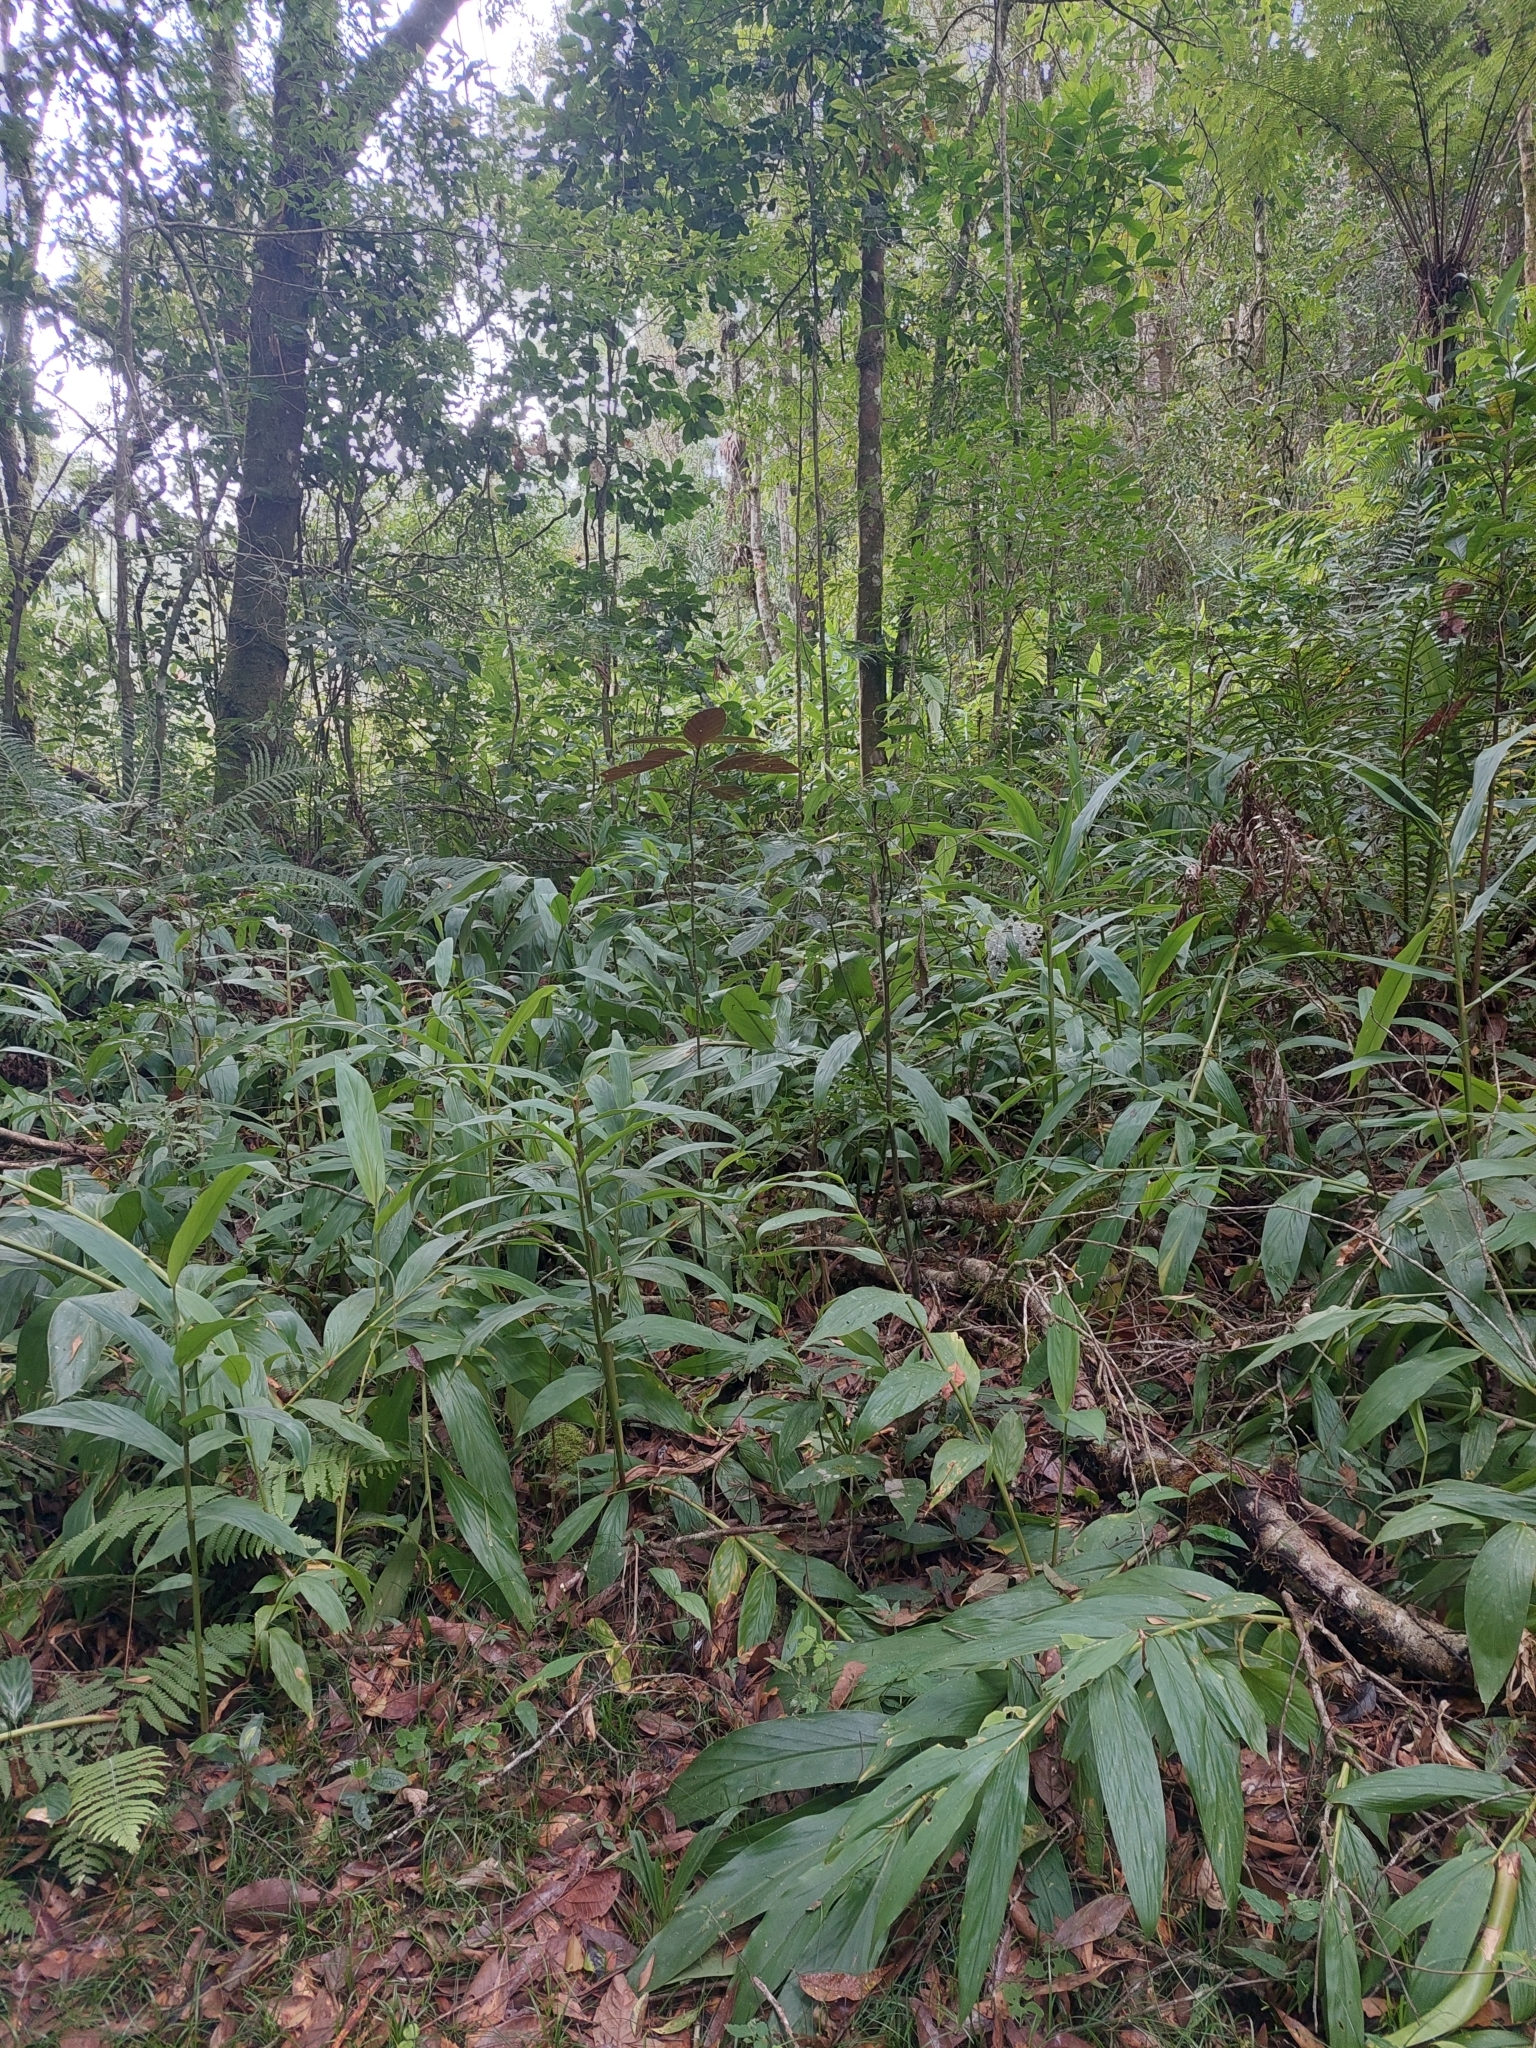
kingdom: Plantae
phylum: Tracheophyta
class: Liliopsida
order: Zingiberales
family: Zingiberaceae
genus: Hedychium
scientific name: Hedychium coronarium
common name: White garland-lily
